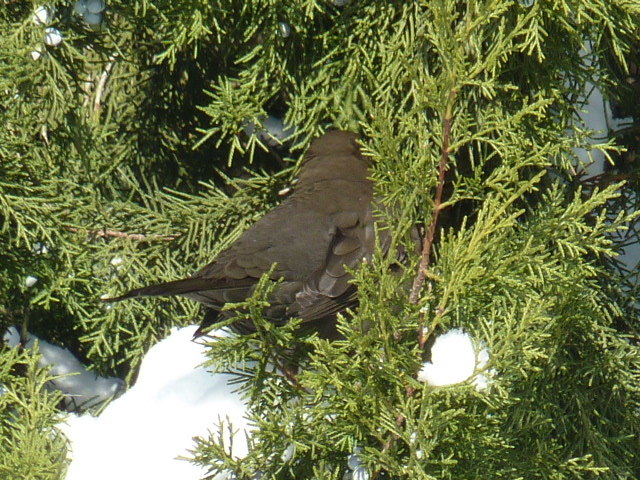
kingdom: Animalia
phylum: Chordata
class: Aves
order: Passeriformes
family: Turdidae
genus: Turdus
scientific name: Turdus merula
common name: Common blackbird
